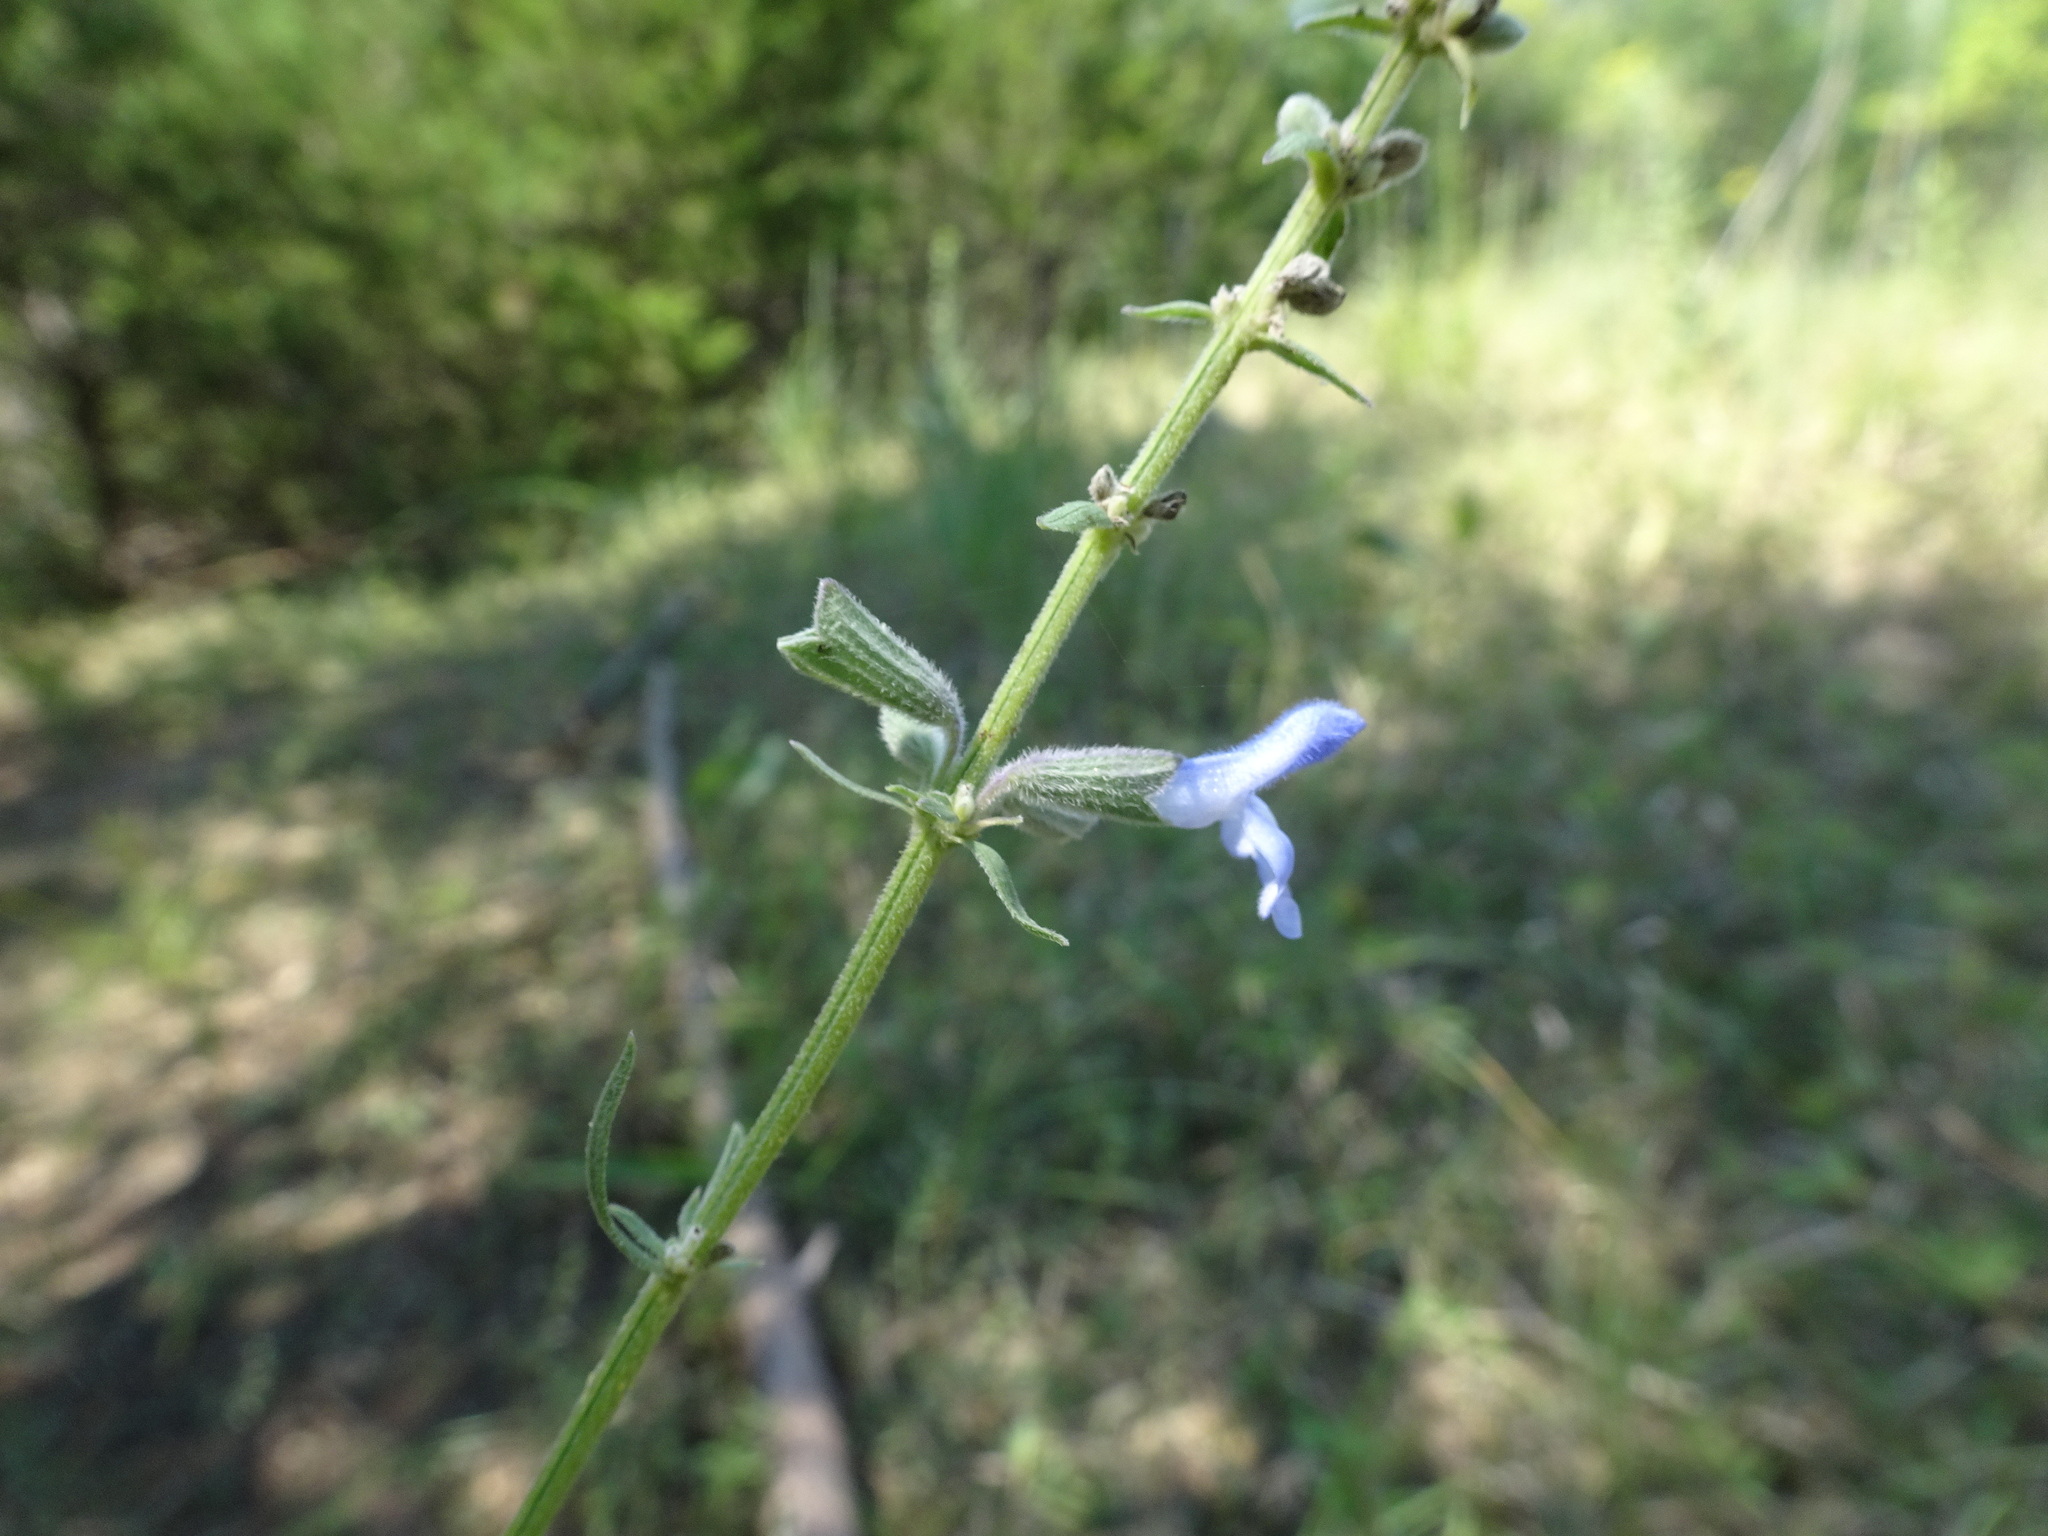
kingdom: Plantae
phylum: Tracheophyta
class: Magnoliopsida
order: Lamiales
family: Lamiaceae
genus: Salvia
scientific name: Salvia azurea
